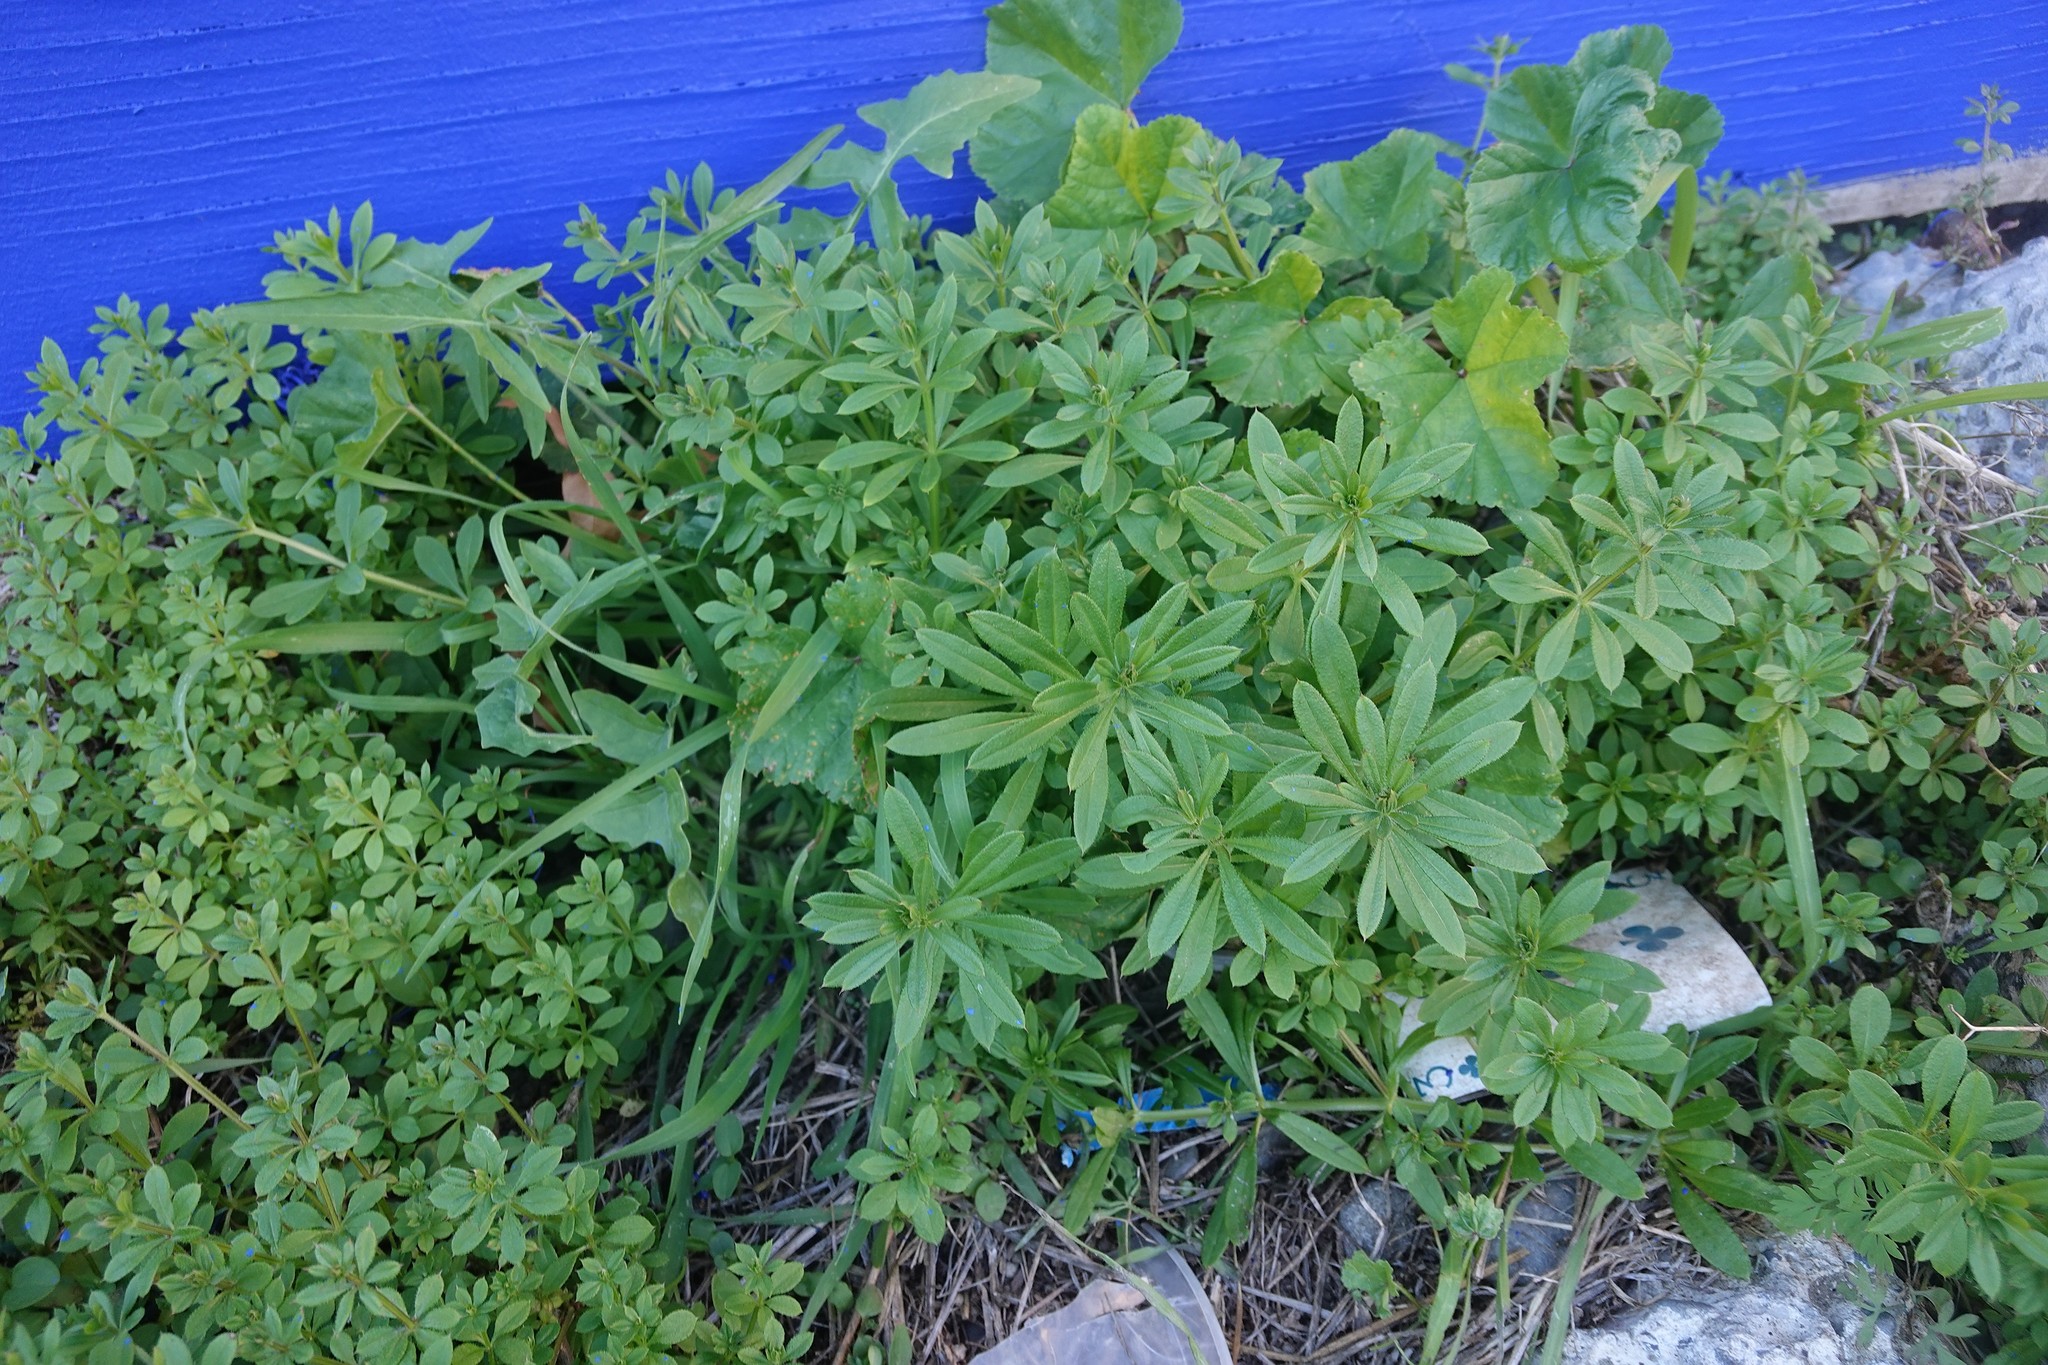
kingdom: Plantae
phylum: Tracheophyta
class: Magnoliopsida
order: Gentianales
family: Rubiaceae
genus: Galium
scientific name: Galium aparine
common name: Cleavers
